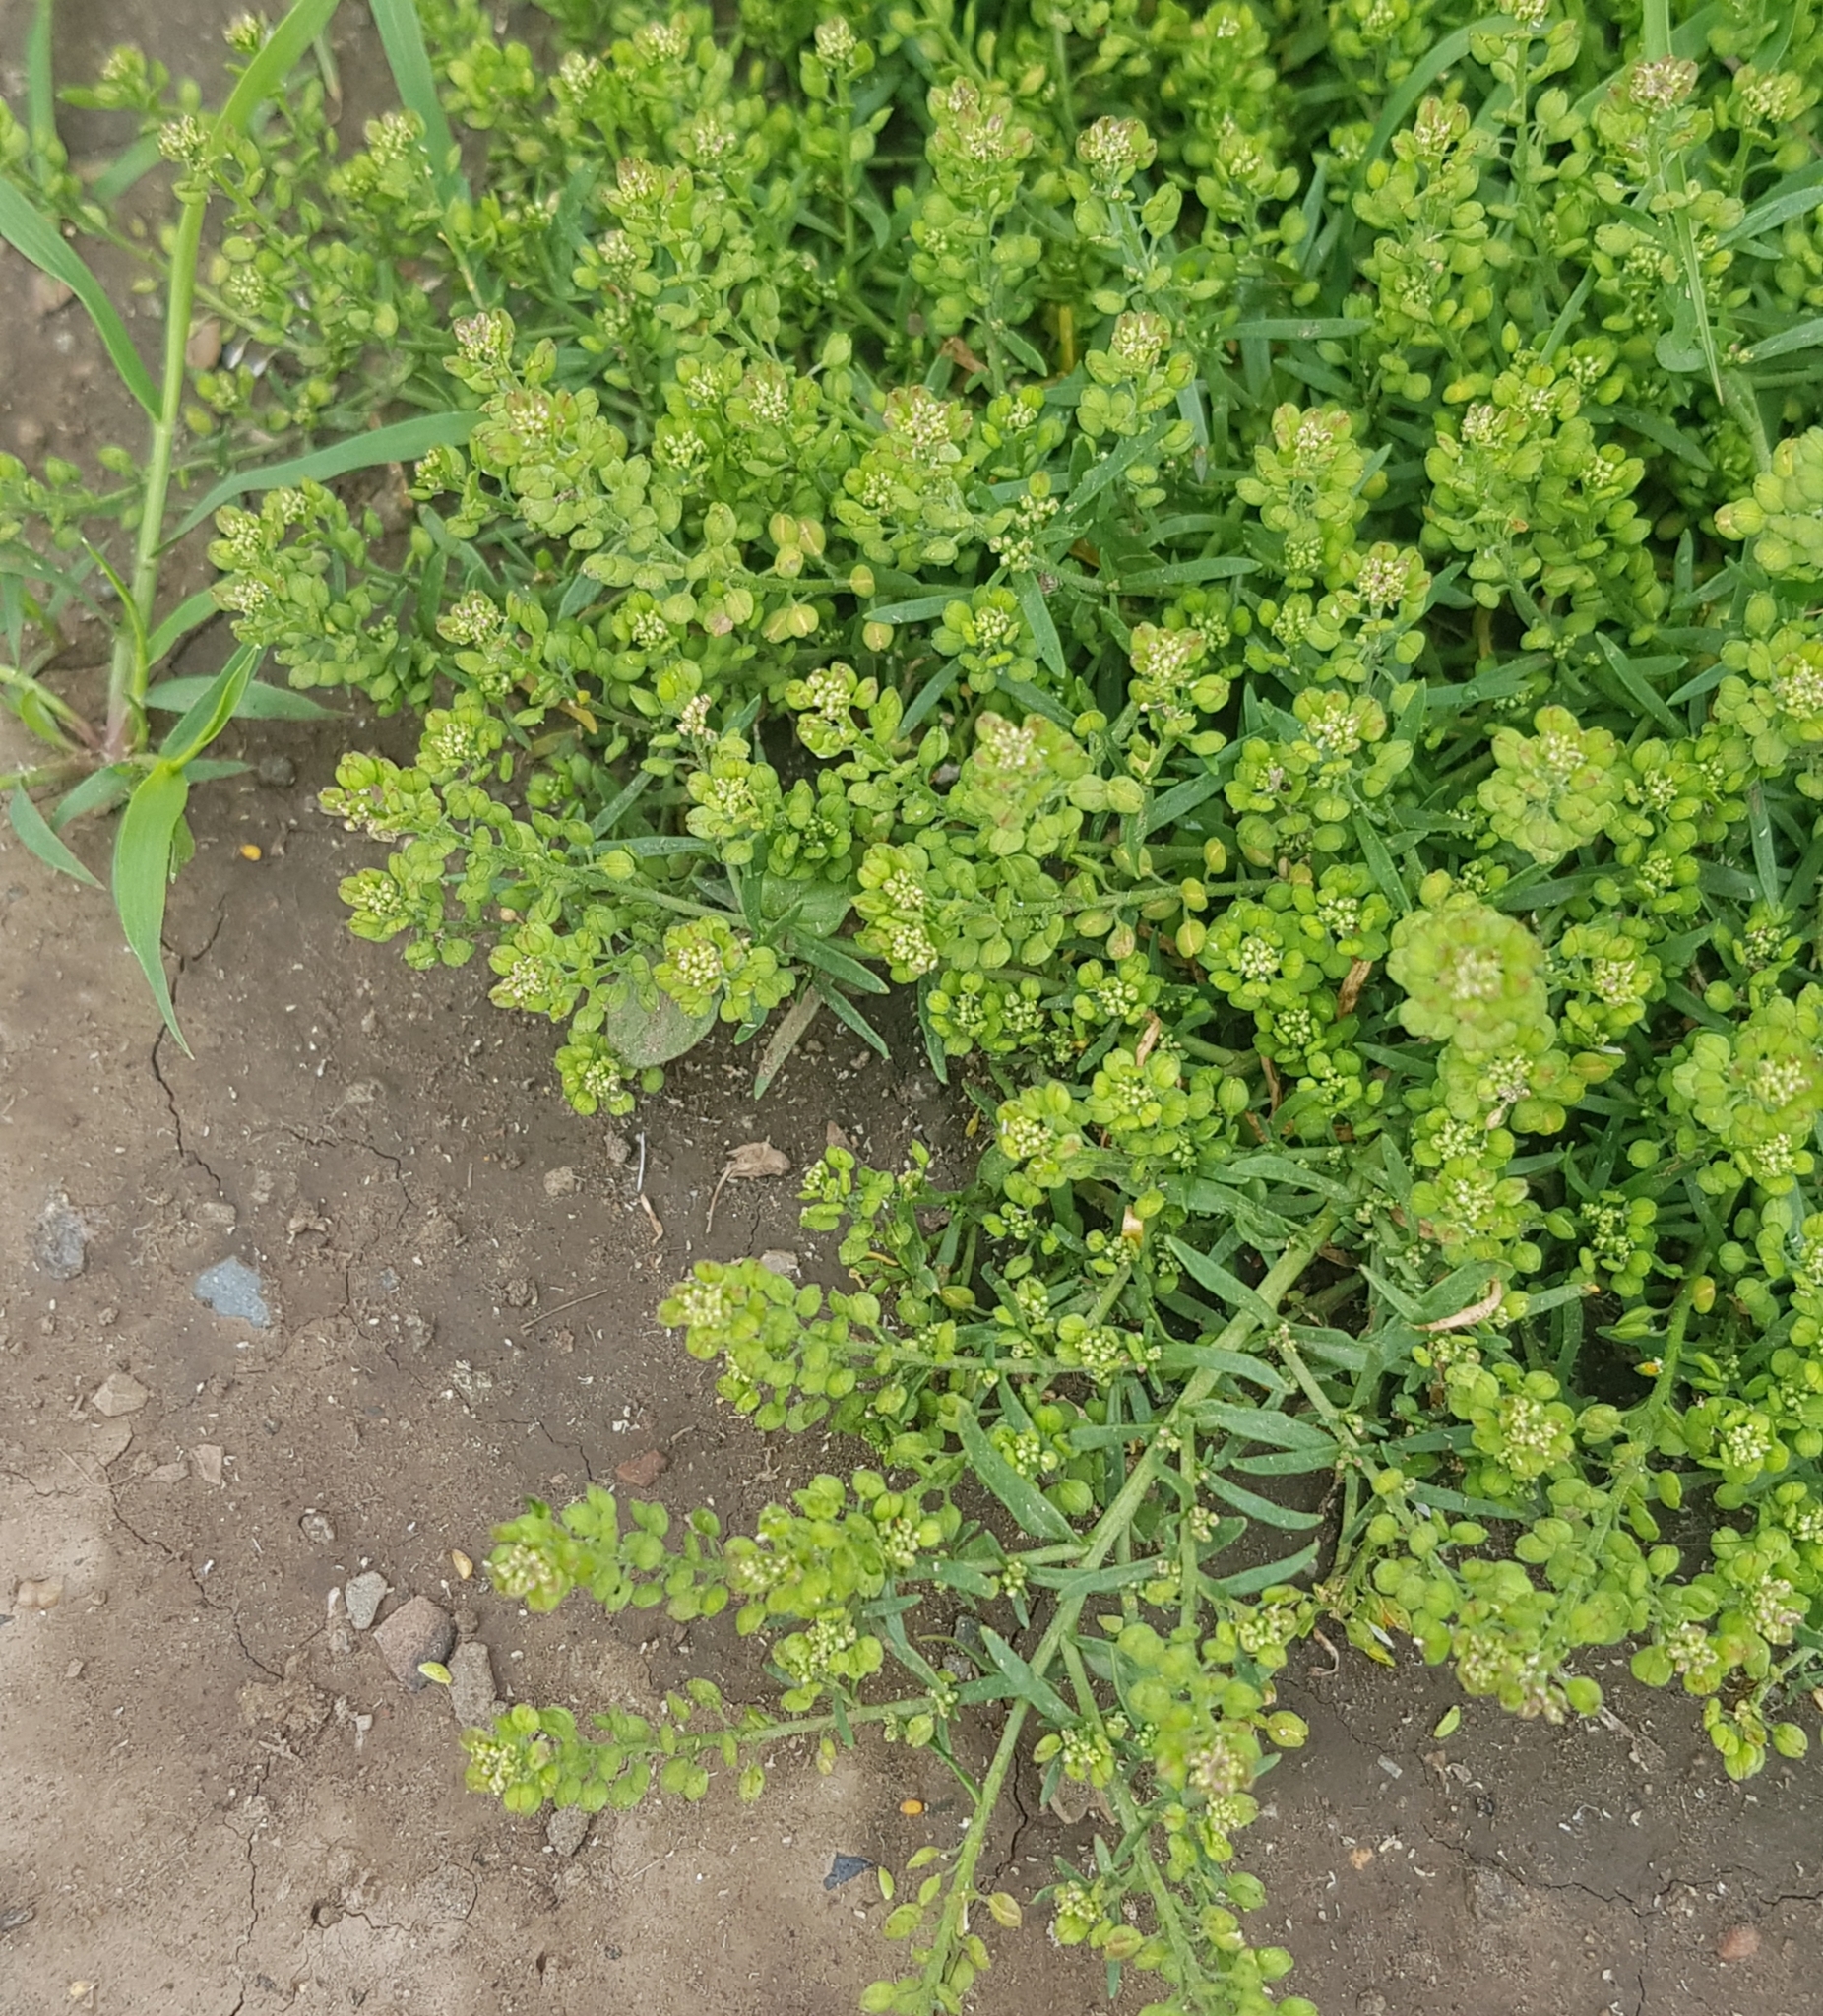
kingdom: Plantae
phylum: Tracheophyta
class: Magnoliopsida
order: Brassicales
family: Brassicaceae
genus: Lepidium
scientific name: Lepidium densiflorum
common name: Miner's pepperwort
